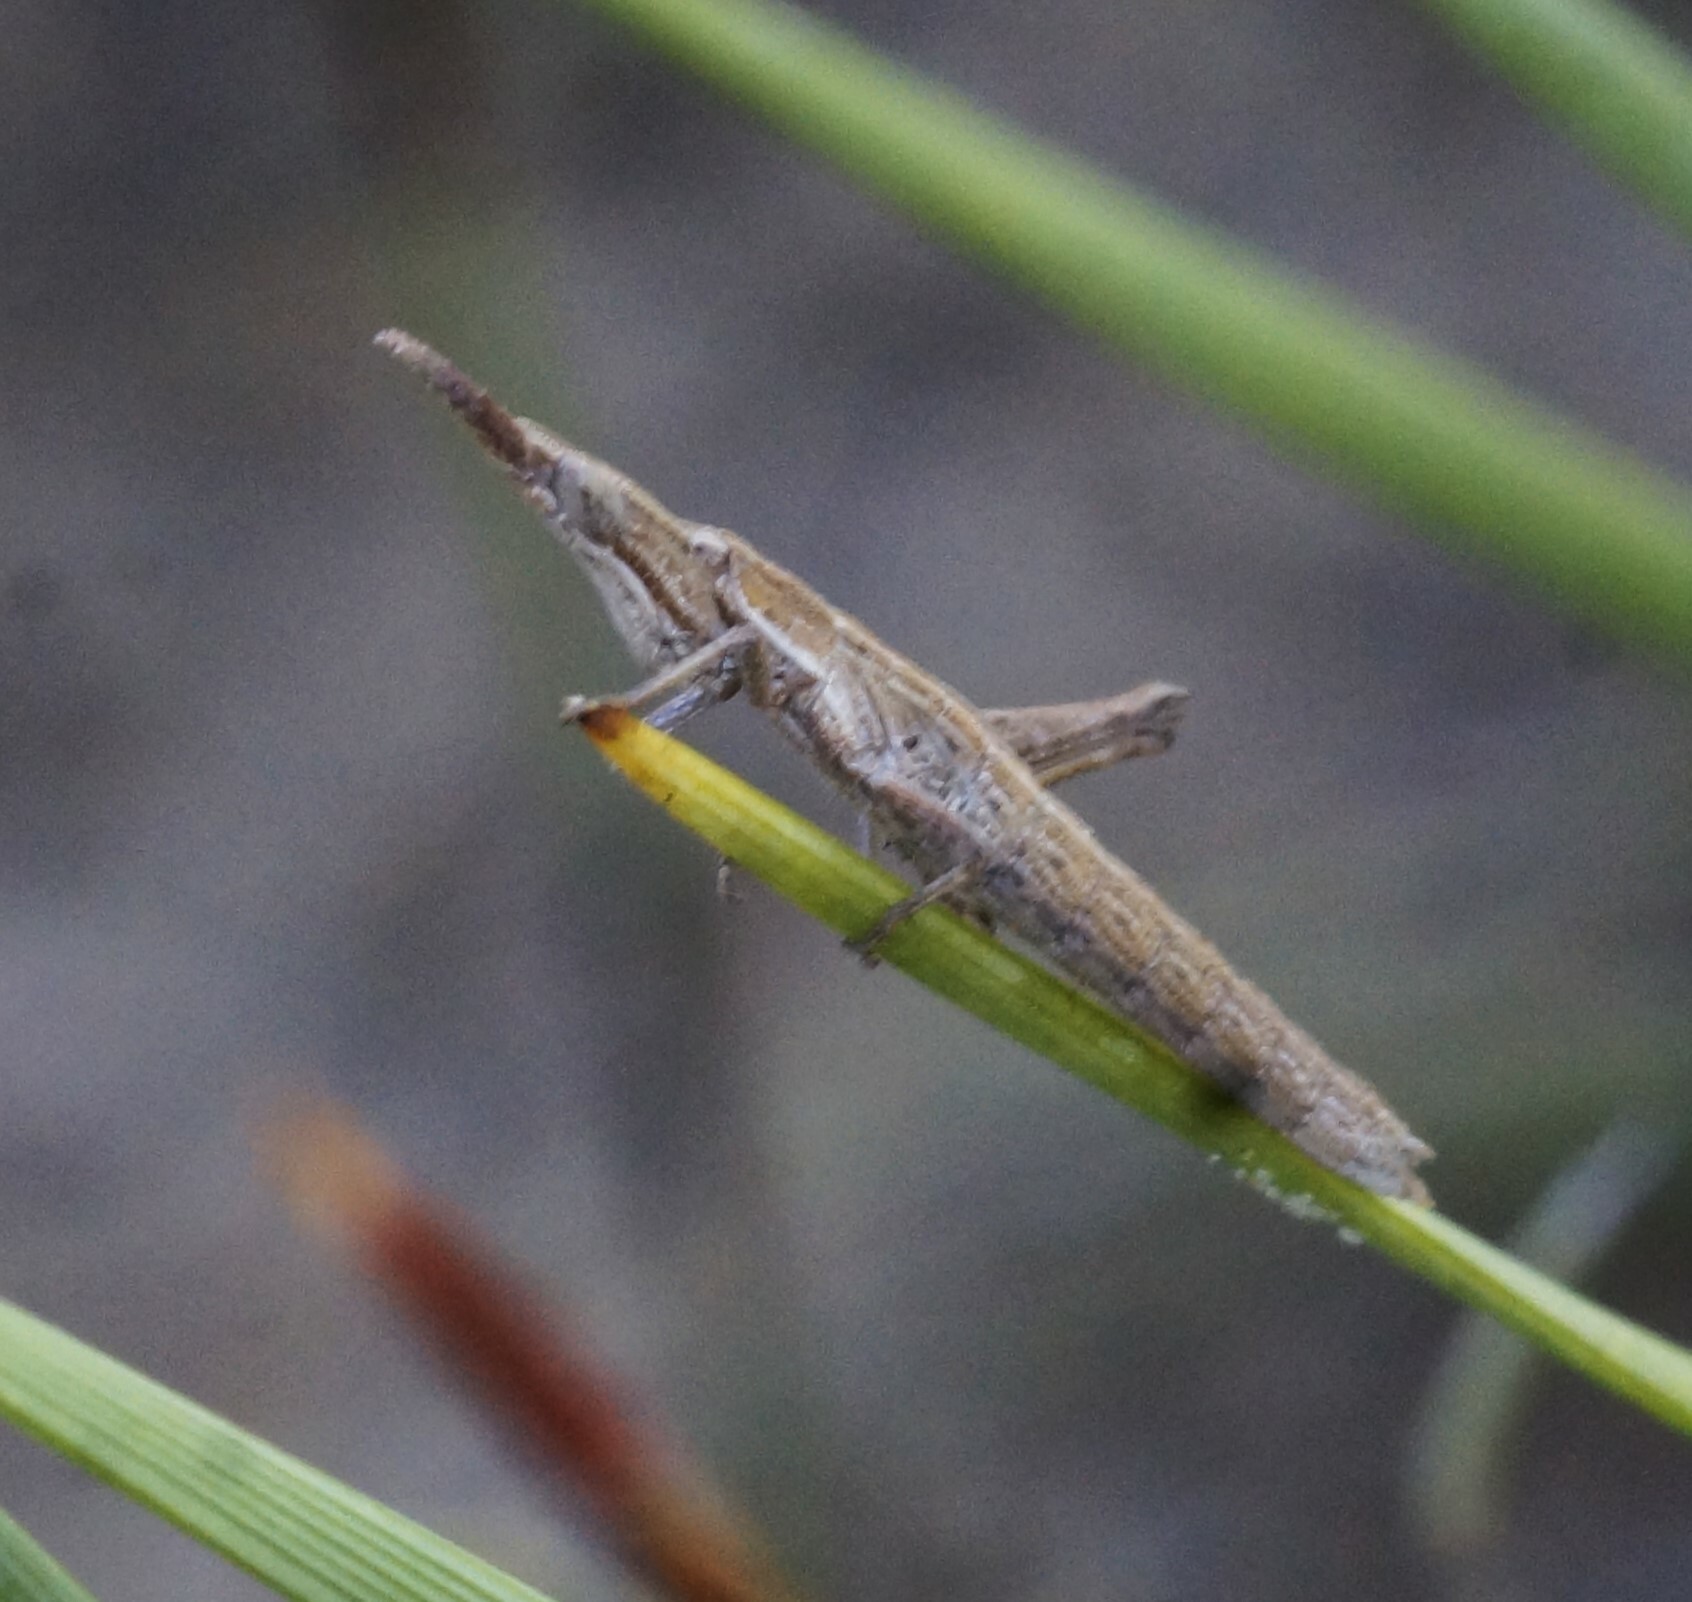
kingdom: Animalia
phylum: Arthropoda
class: Insecta
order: Orthoptera
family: Morabidae
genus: Vandiemenella
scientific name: Vandiemenella viatica
